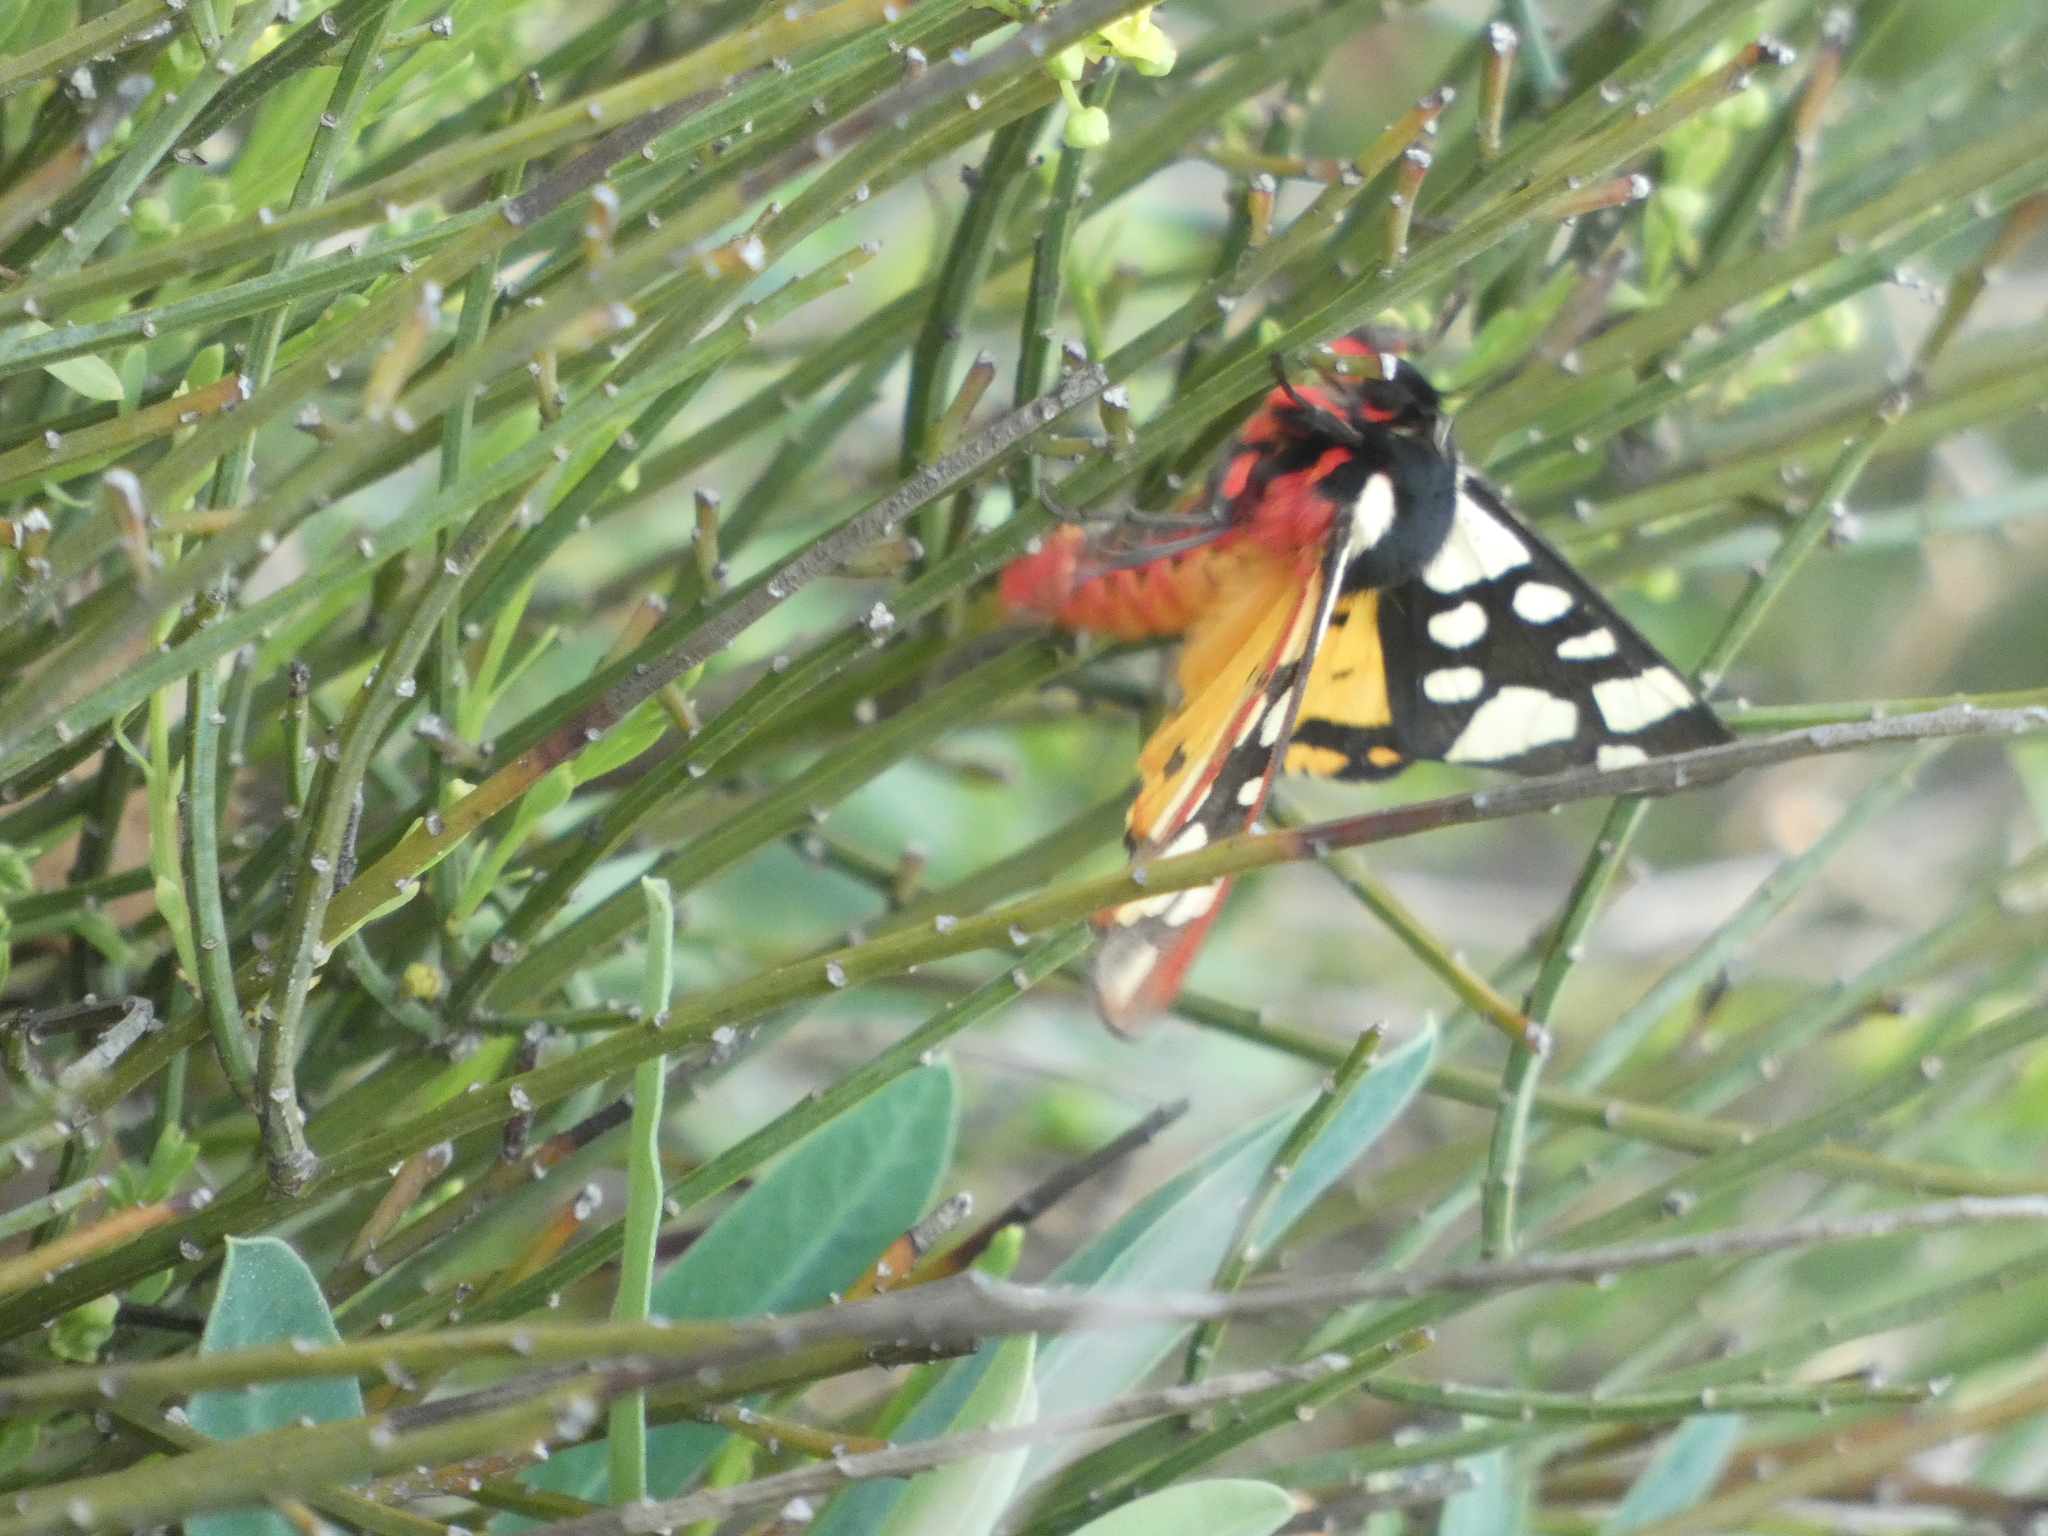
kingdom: Animalia
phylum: Arthropoda
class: Insecta
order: Lepidoptera
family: Erebidae
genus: Epicallia
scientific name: Epicallia villica
